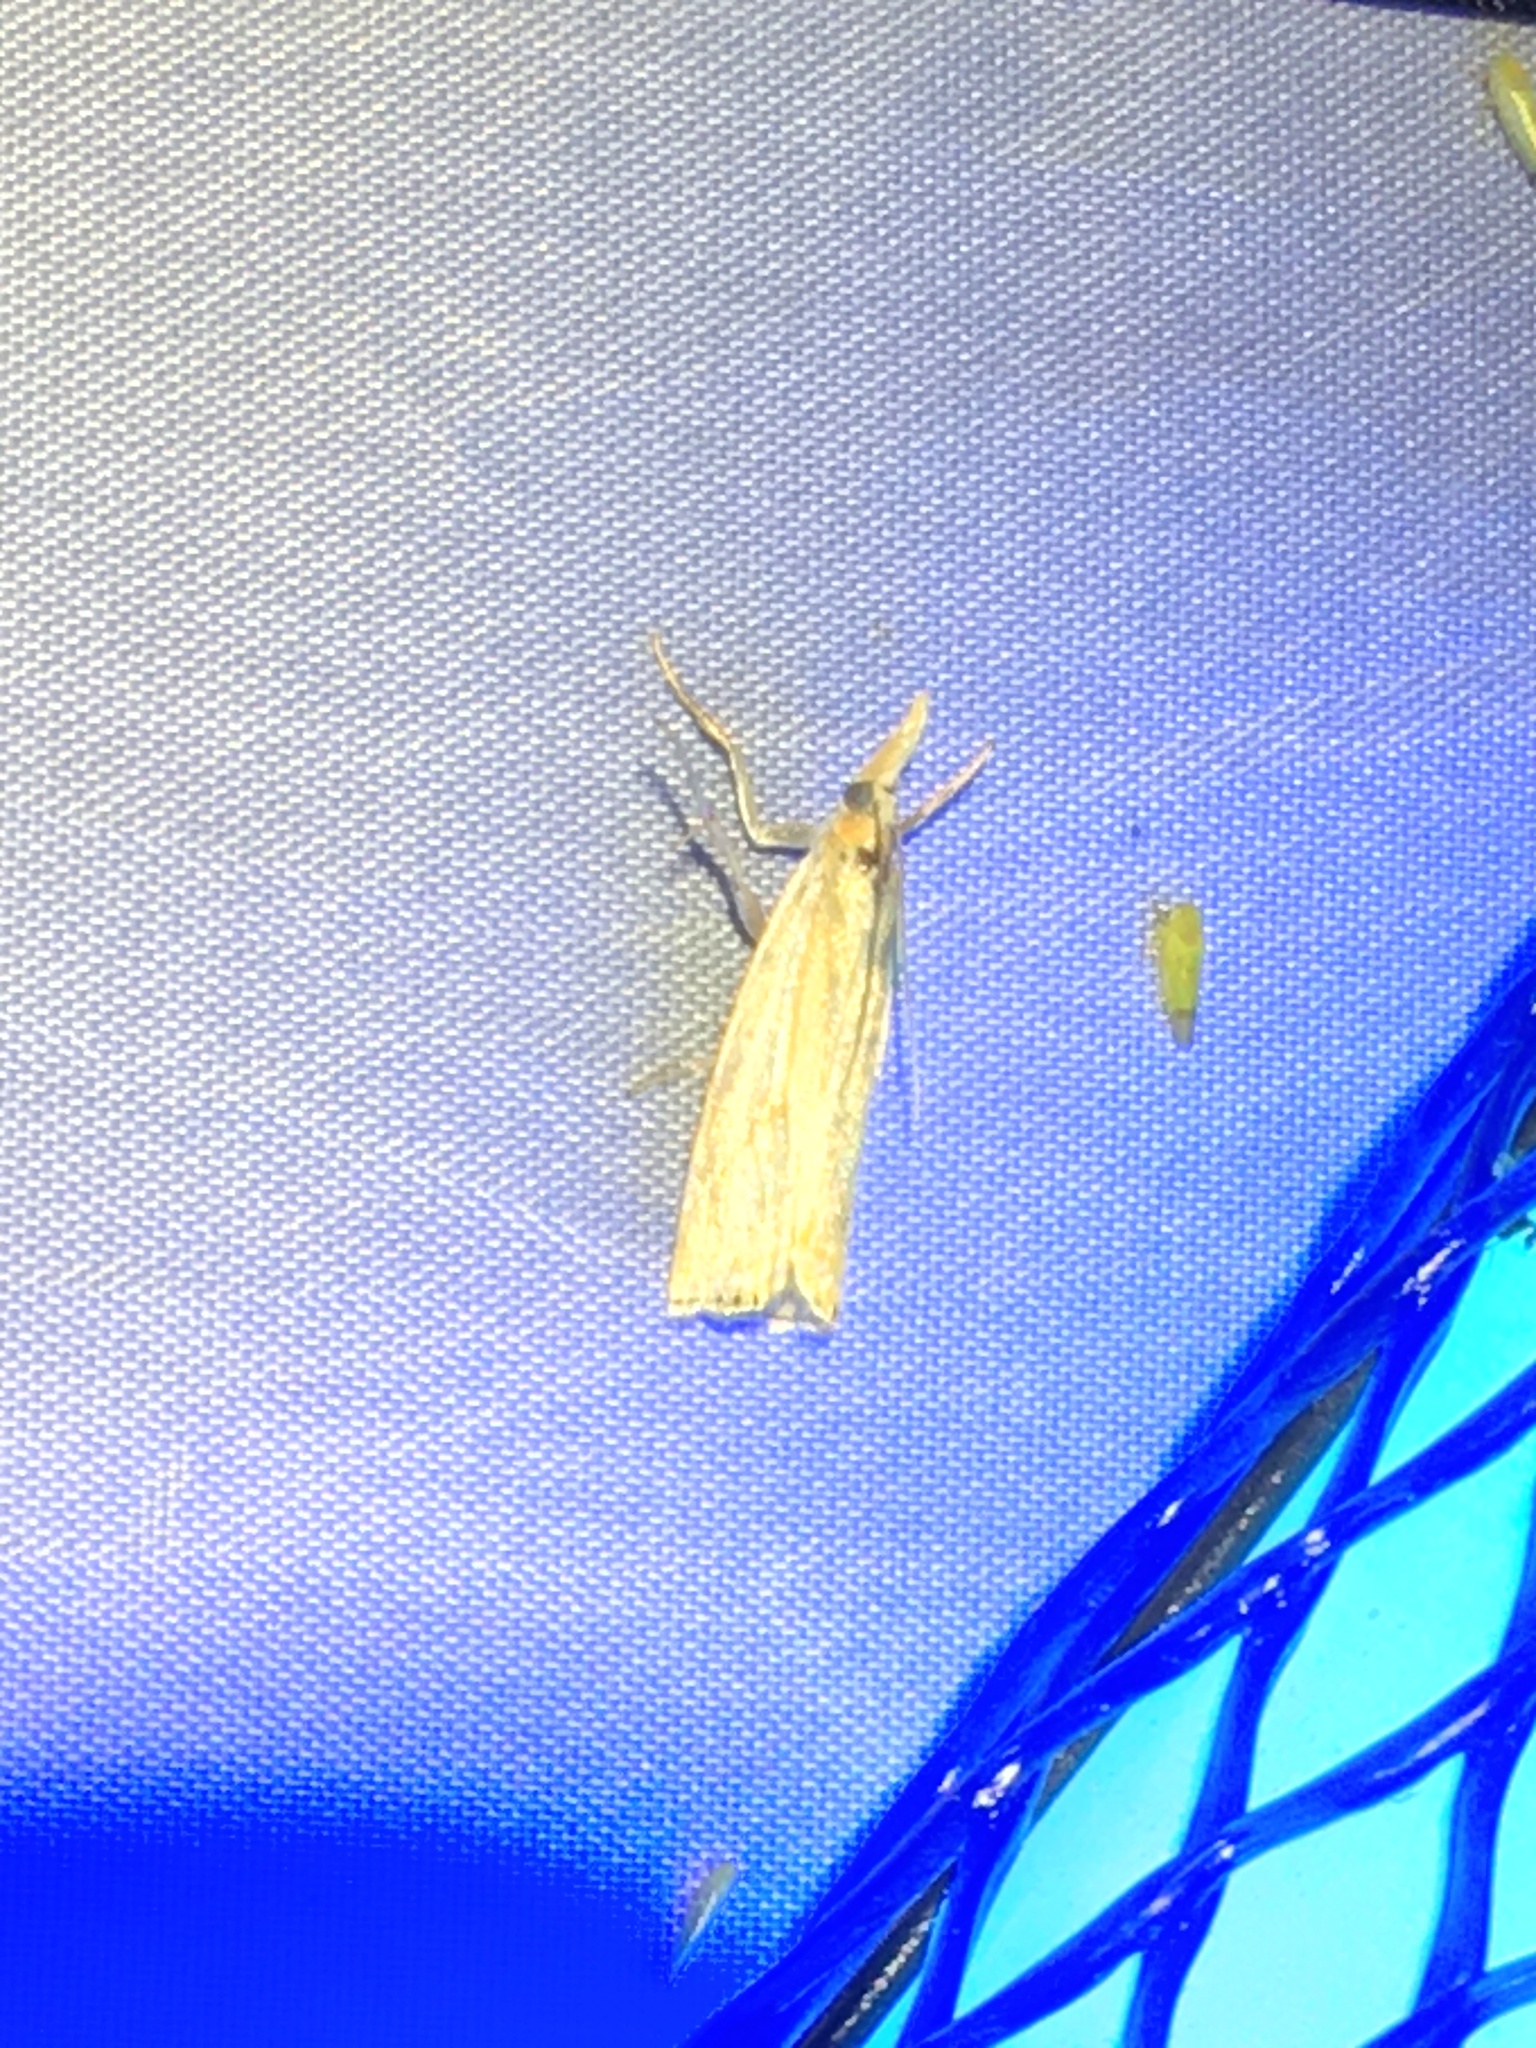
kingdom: Animalia
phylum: Arthropoda
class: Insecta
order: Lepidoptera
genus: Crambina
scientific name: Crambina
